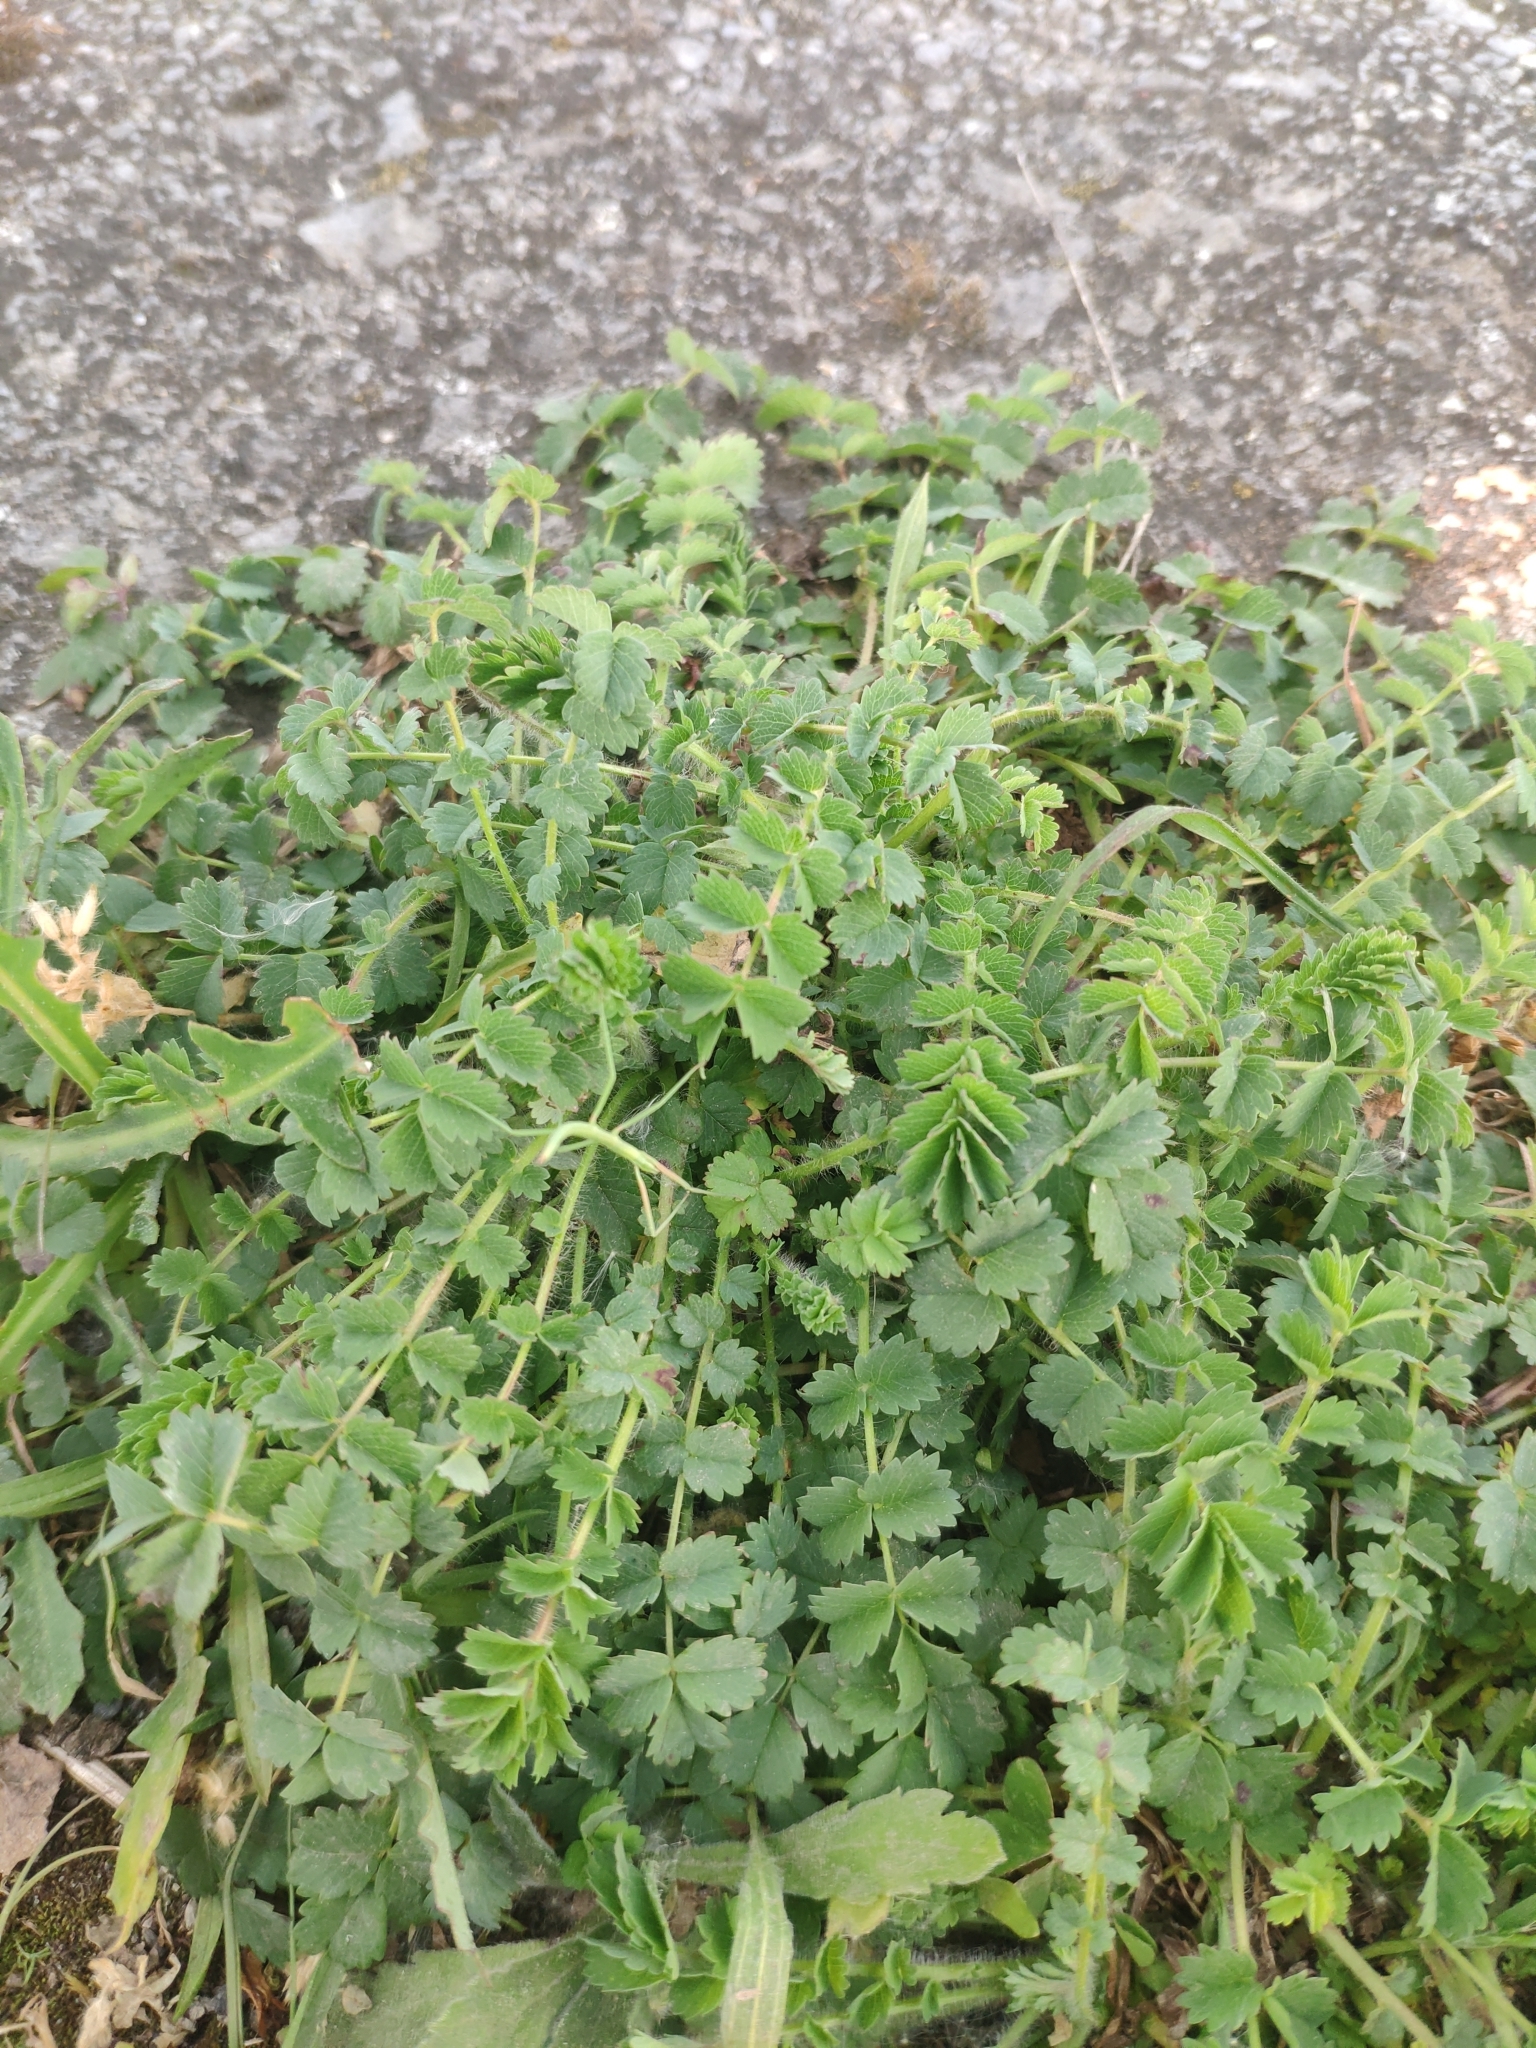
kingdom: Plantae
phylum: Tracheophyta
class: Magnoliopsida
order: Rosales
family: Rosaceae
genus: Poterium
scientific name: Poterium sanguisorba
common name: Salad burnet
